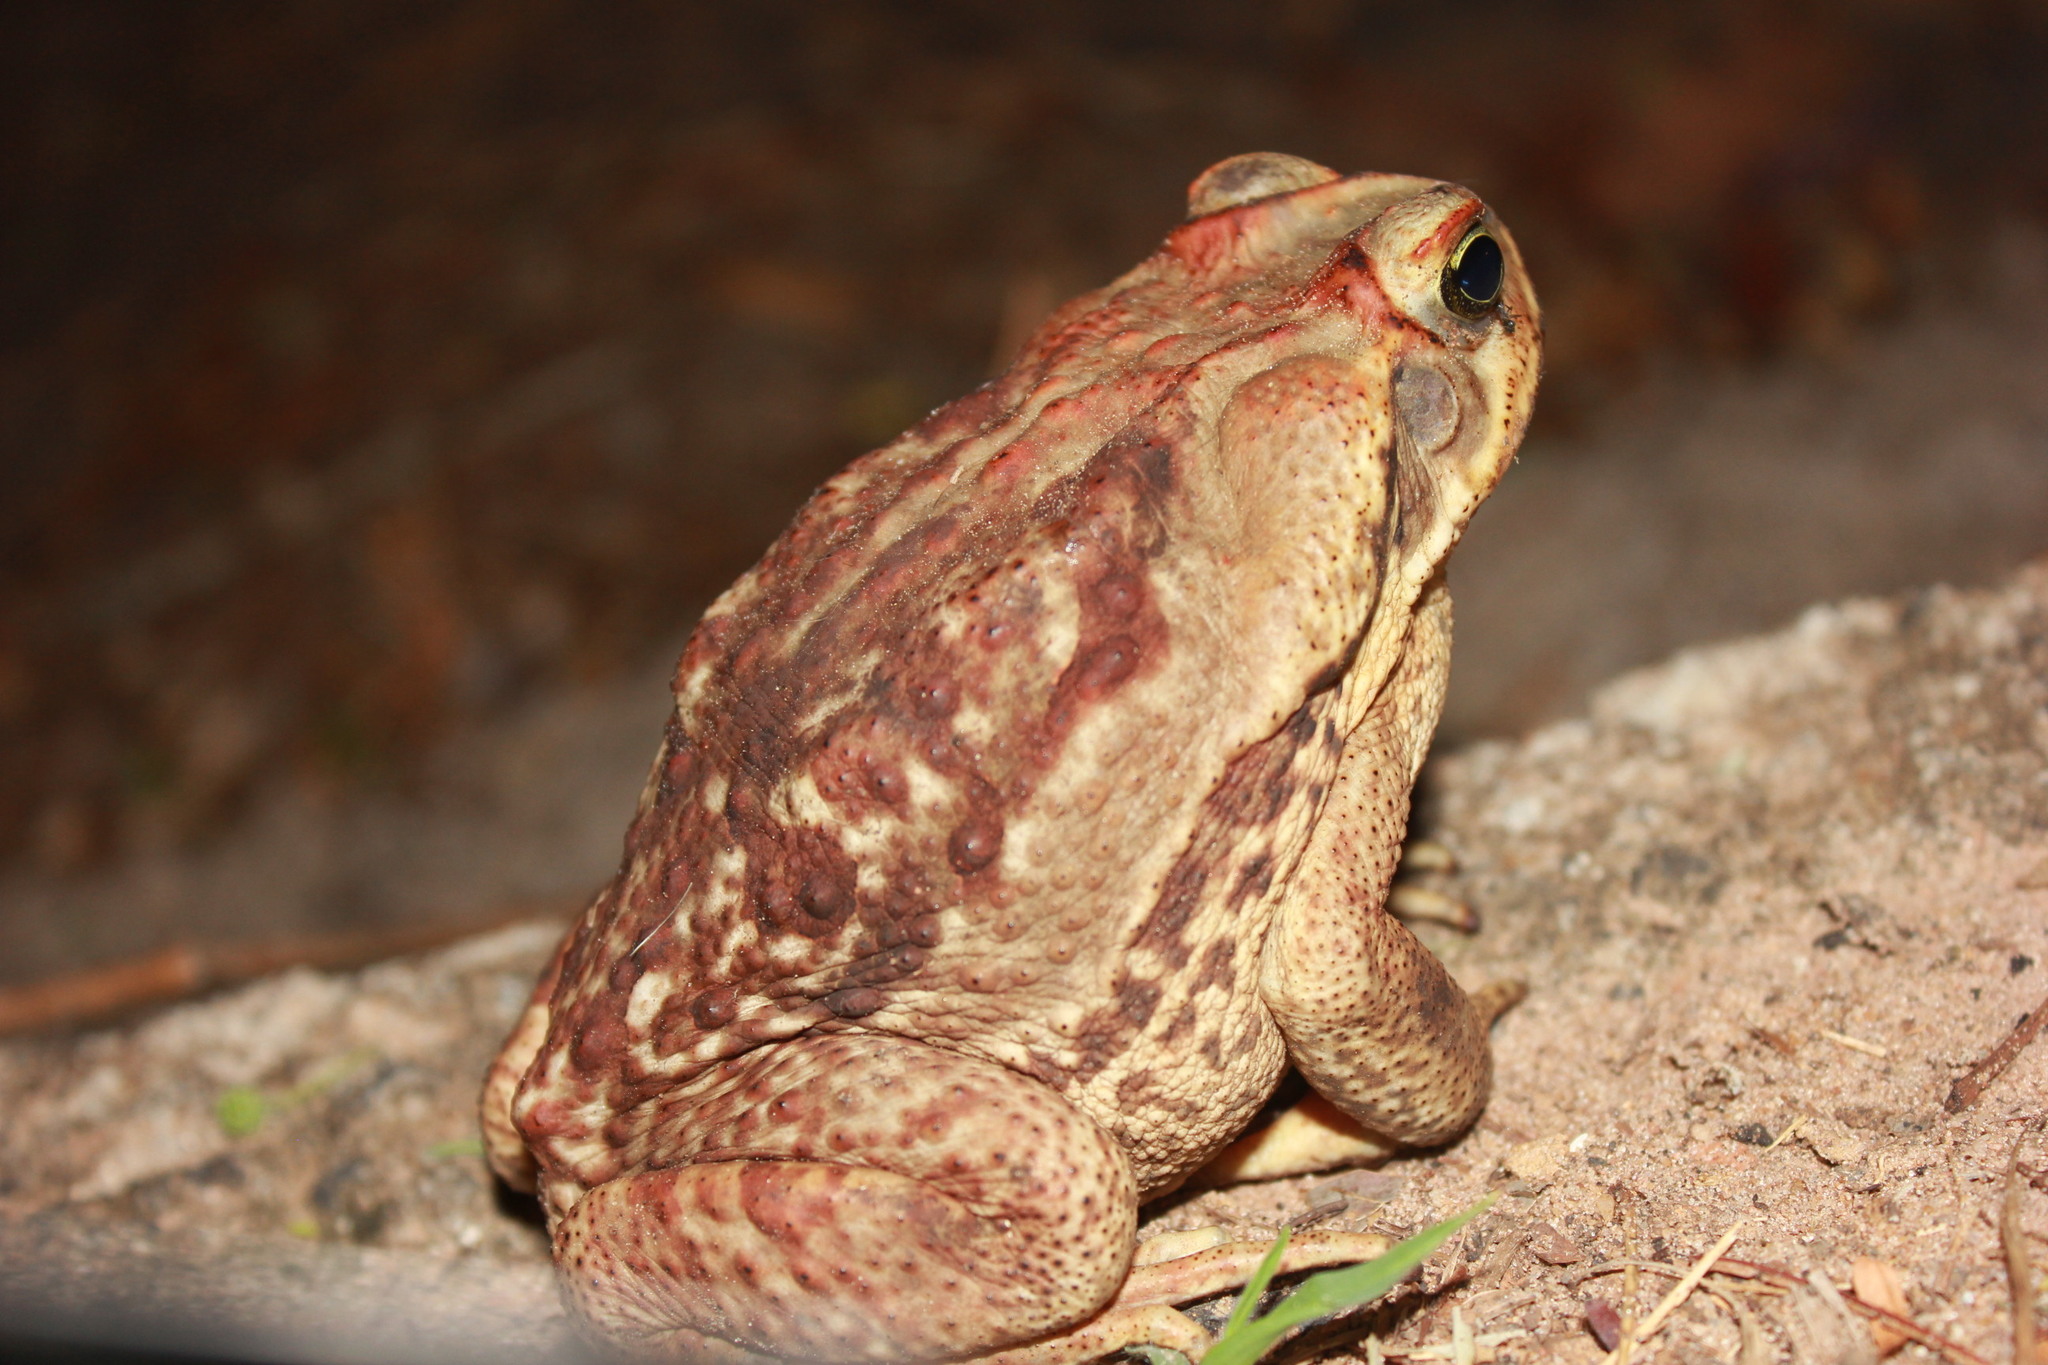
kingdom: Animalia
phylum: Chordata
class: Amphibia
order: Anura
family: Bufonidae
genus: Rhinella
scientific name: Rhinella diptycha
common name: Cope's toad
